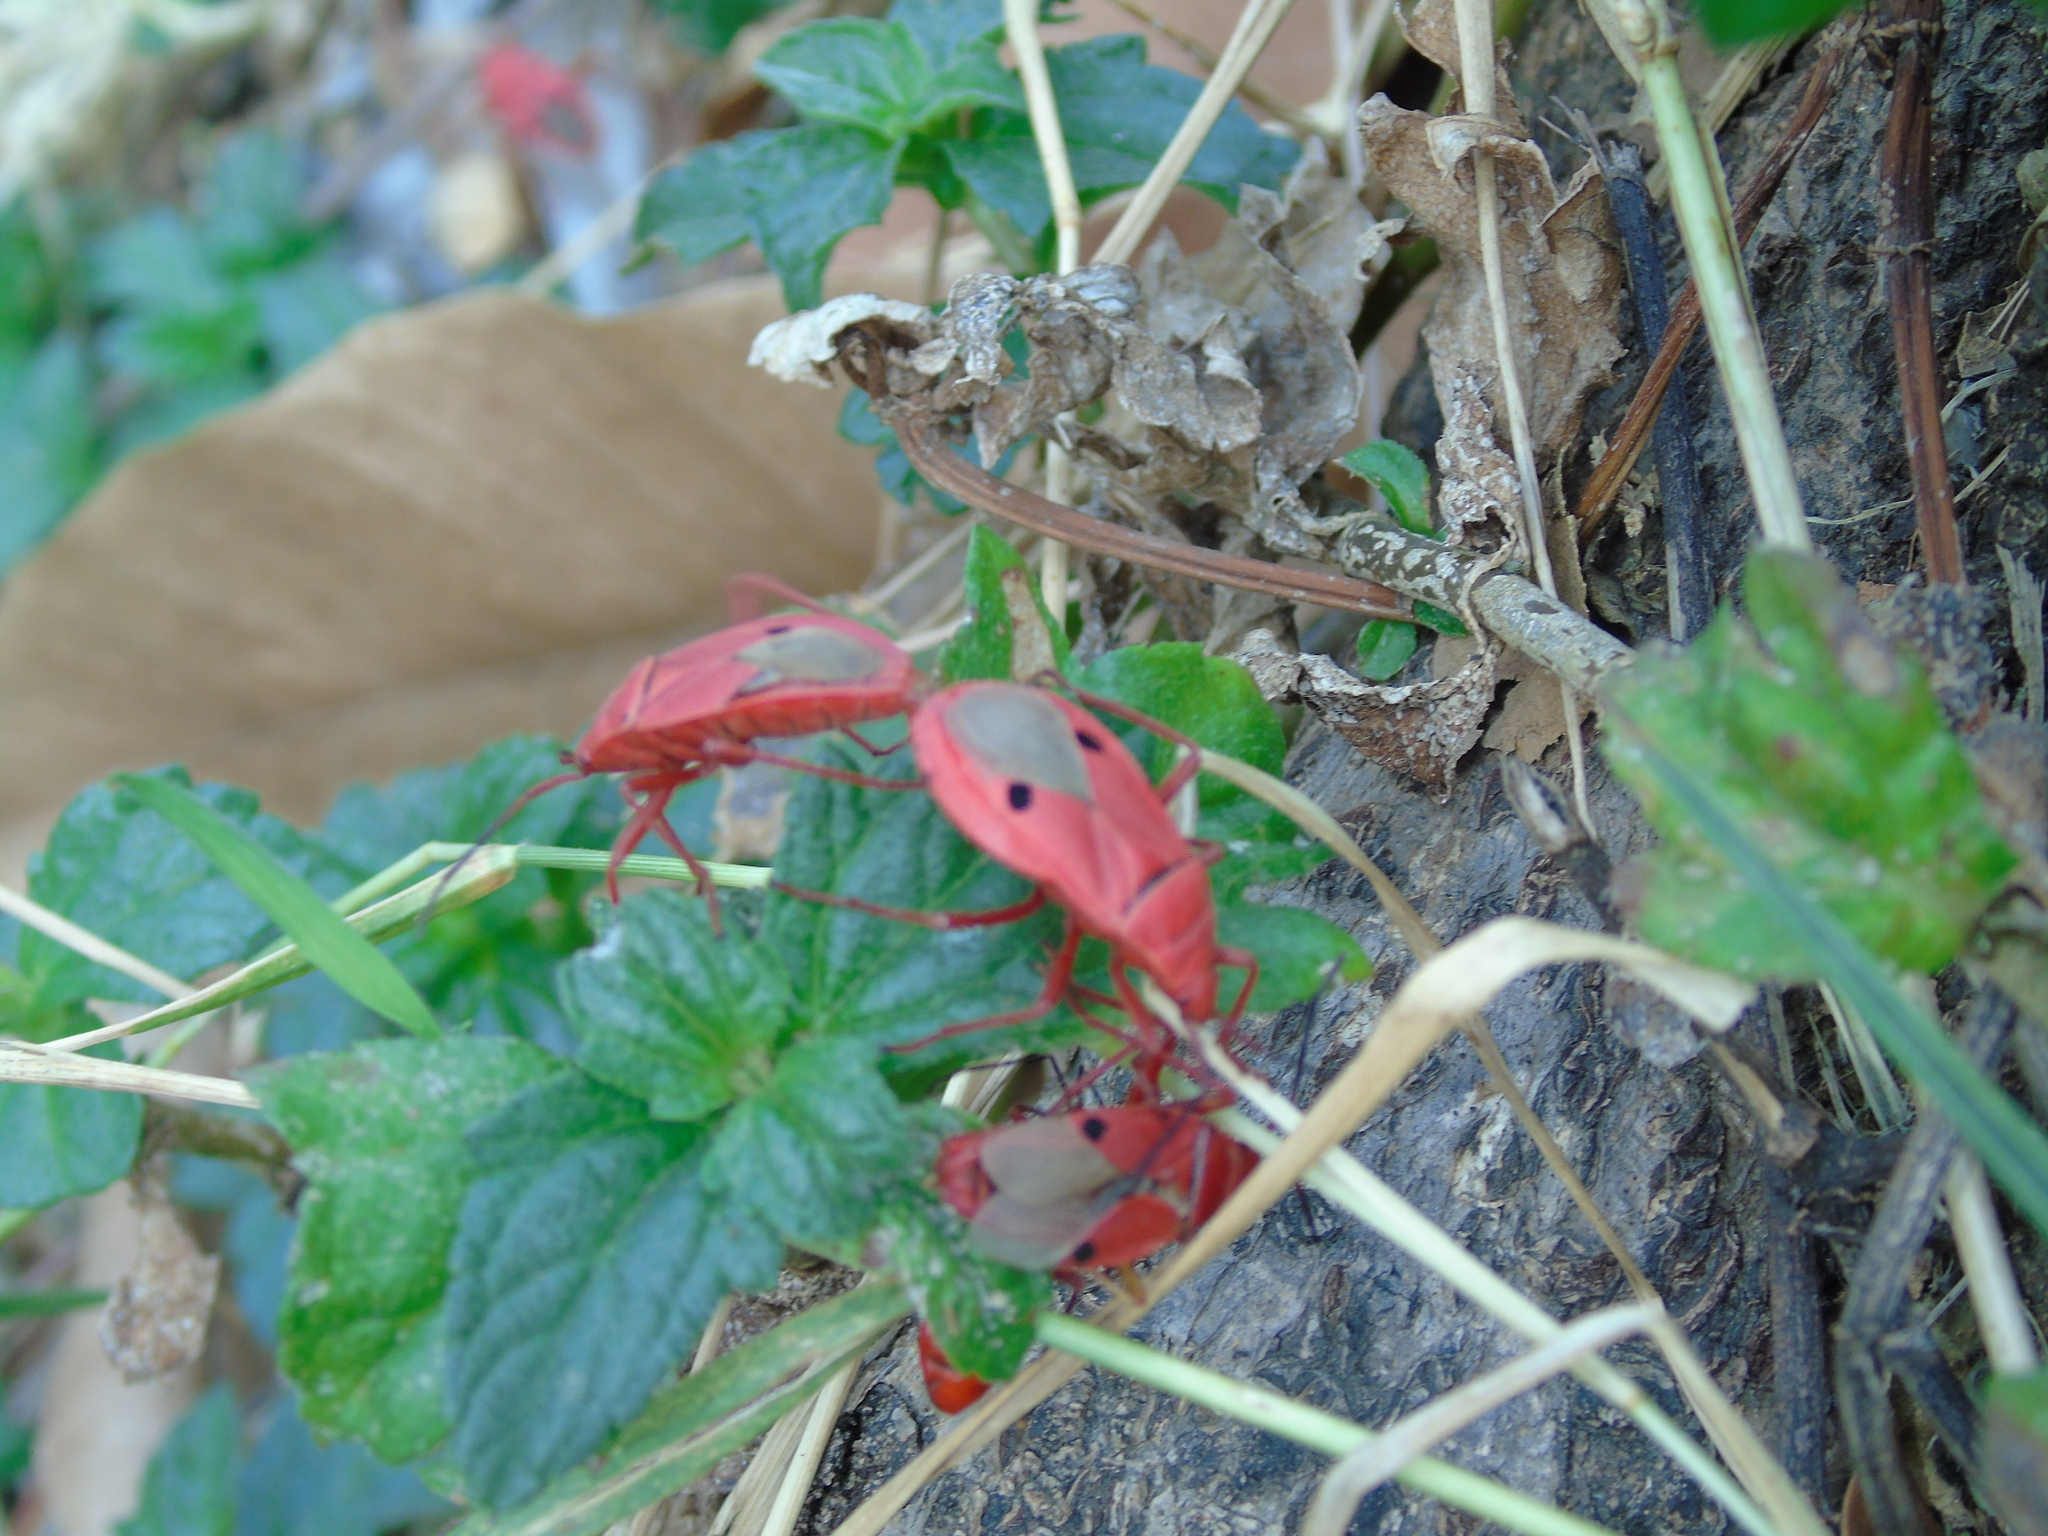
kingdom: Animalia
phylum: Arthropoda
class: Insecta
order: Hemiptera
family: Pyrrhocoridae
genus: Probergrothius
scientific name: Probergrothius nigricornis
